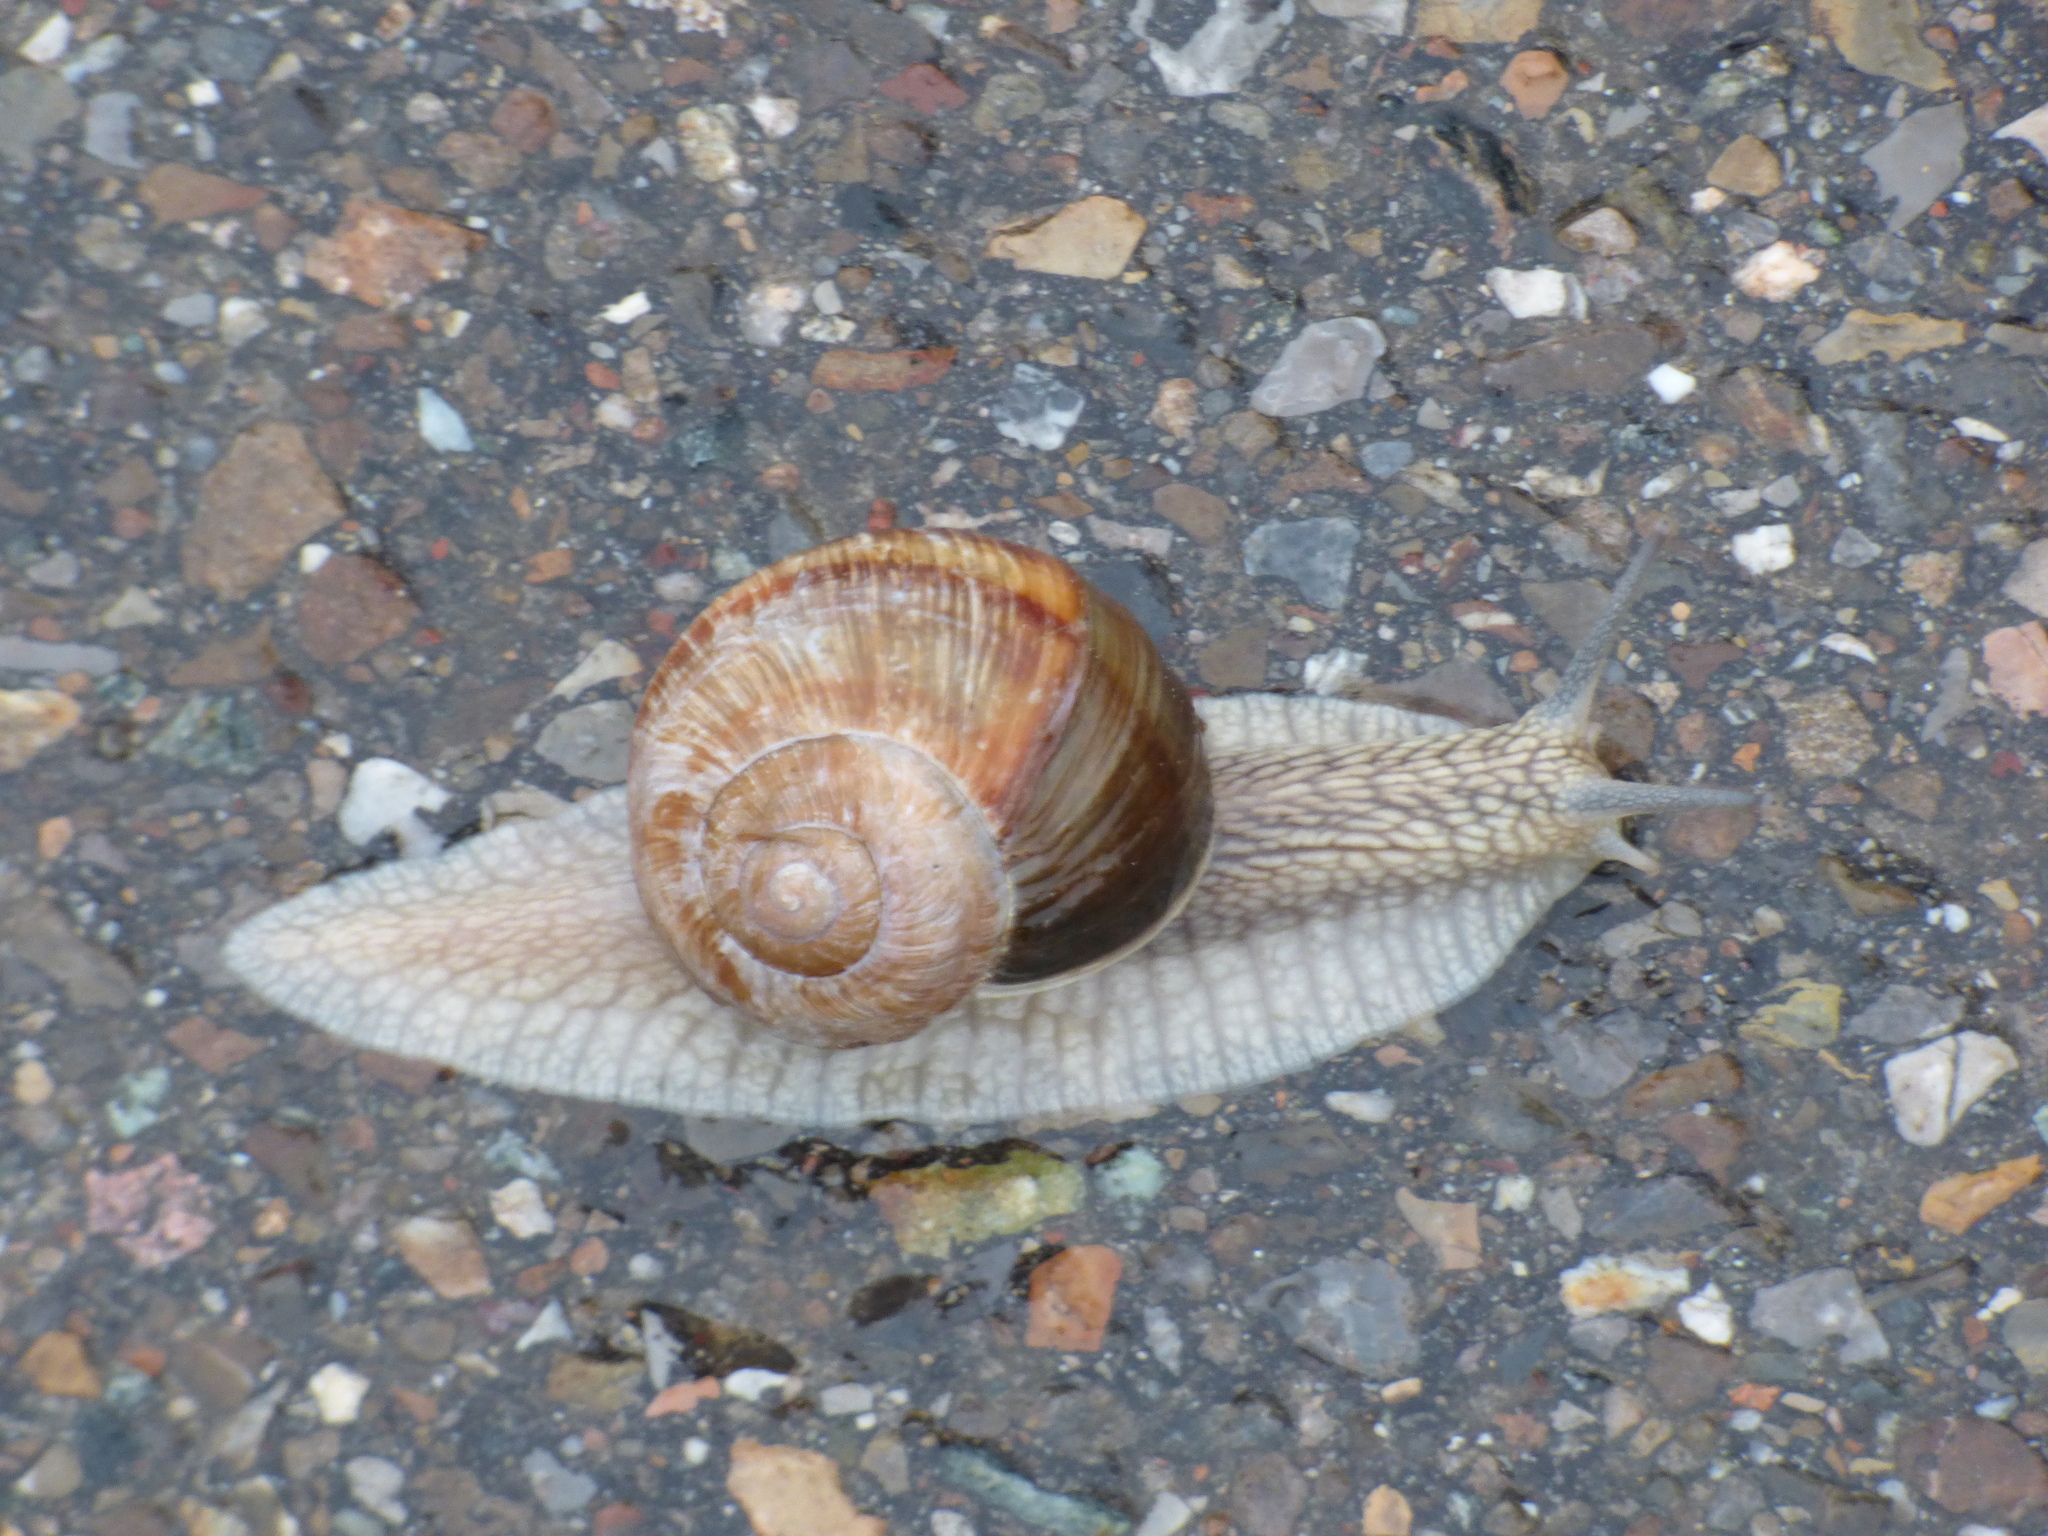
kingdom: Animalia
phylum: Mollusca
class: Gastropoda
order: Stylommatophora
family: Helicidae
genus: Helix
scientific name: Helix pomatia
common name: Roman snail
